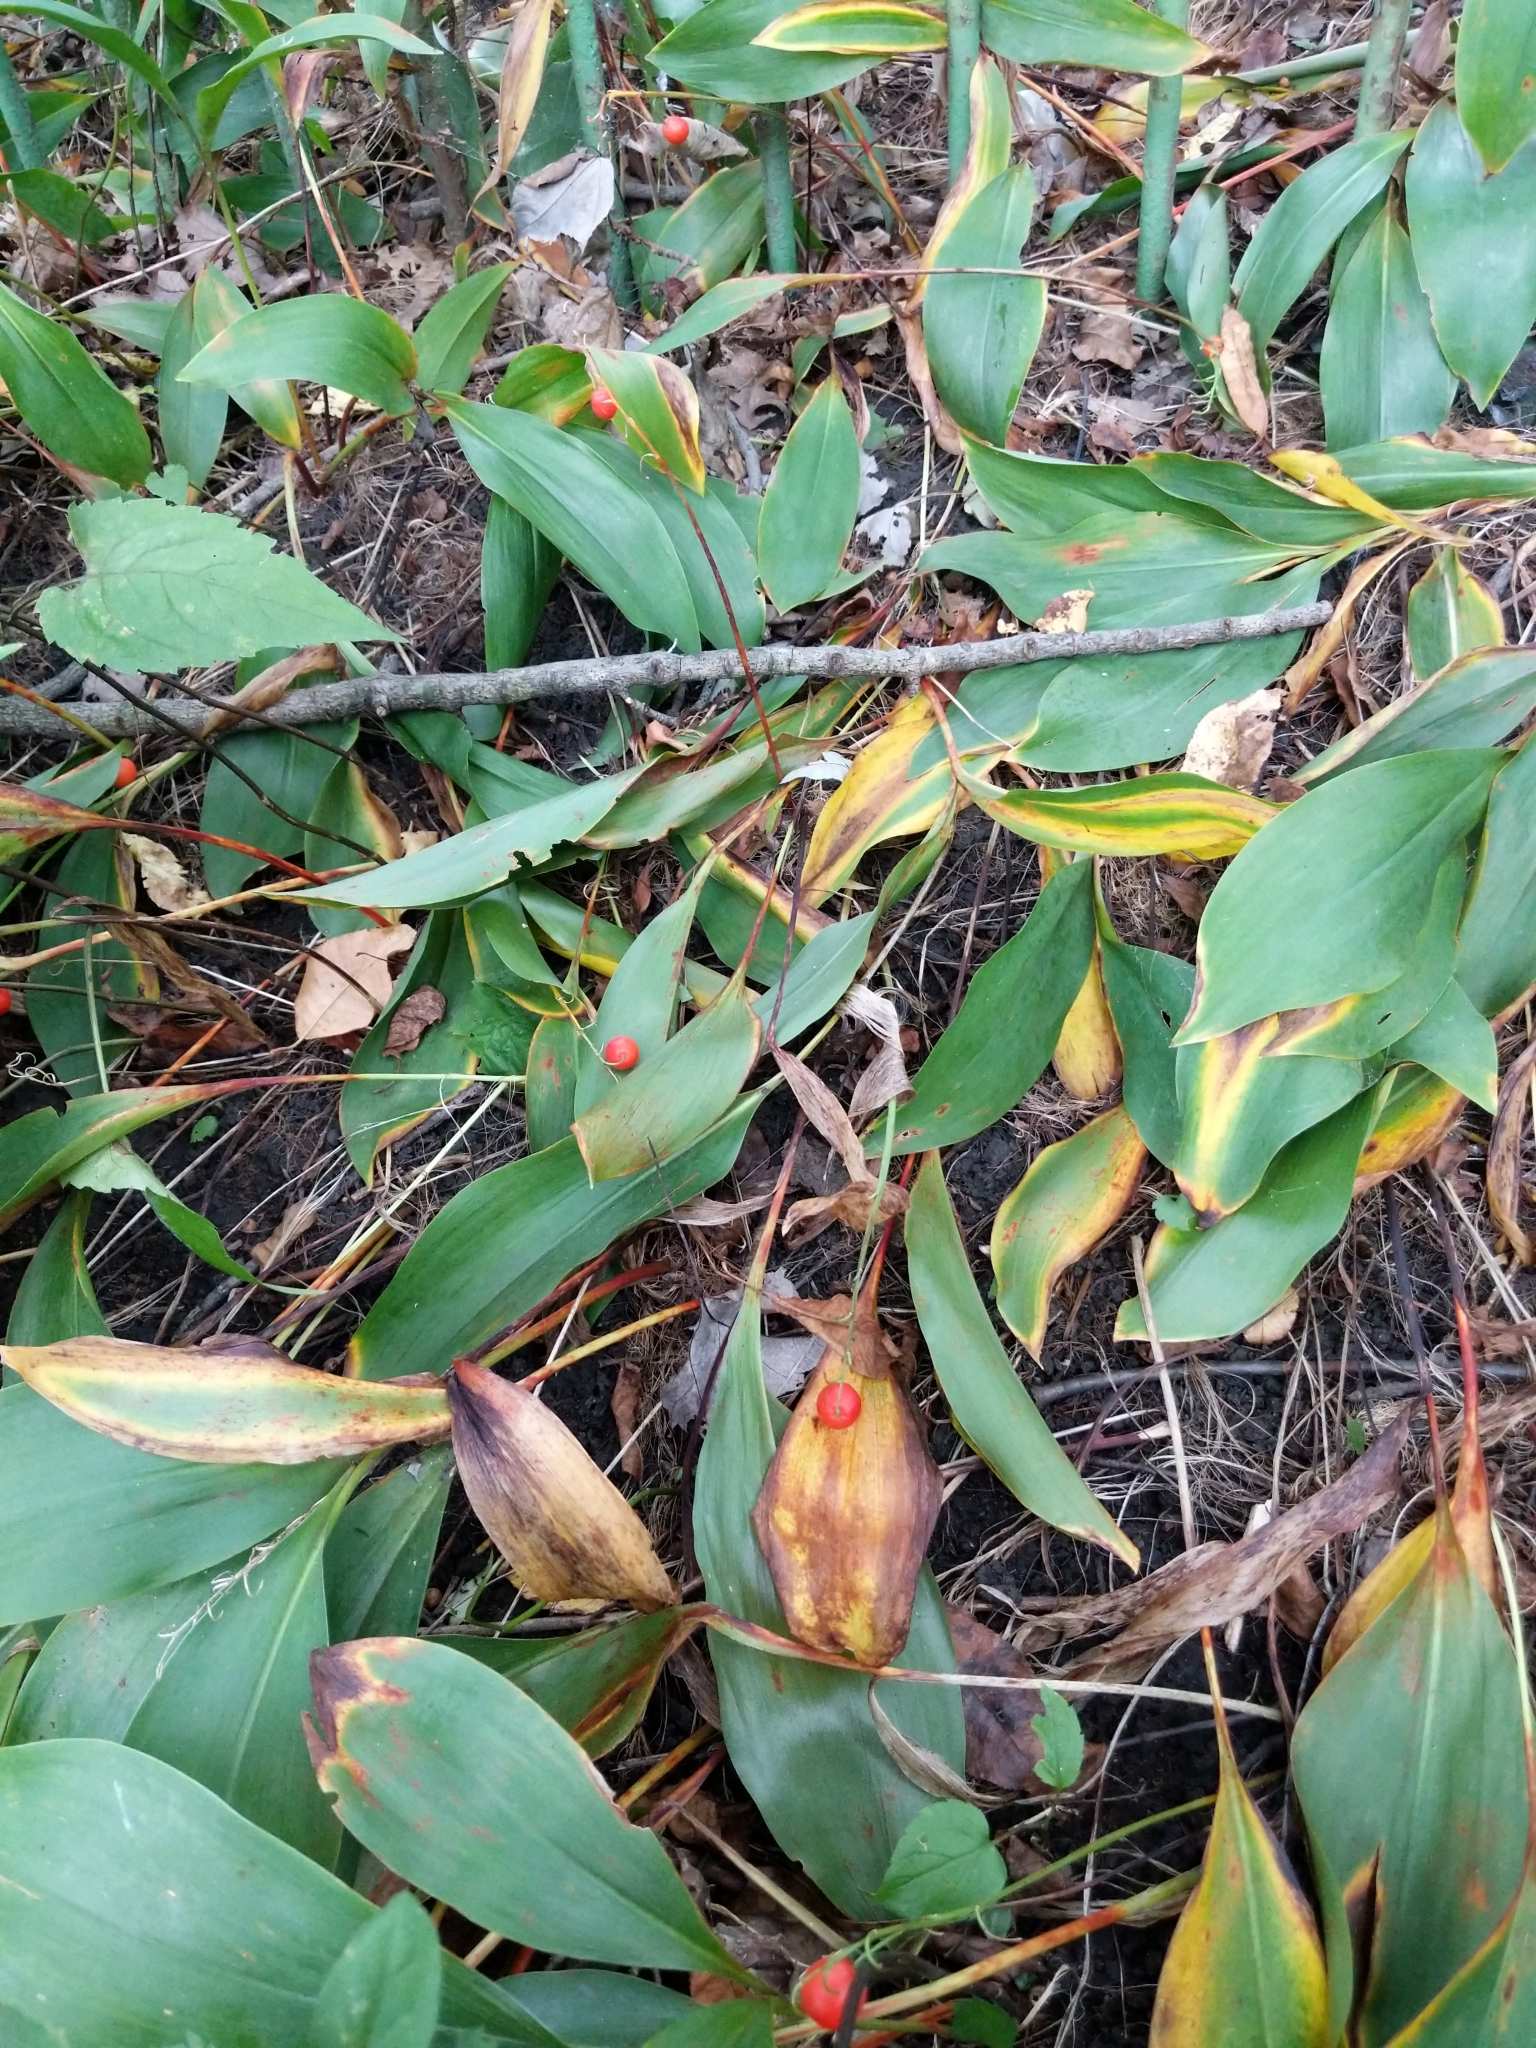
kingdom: Plantae
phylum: Tracheophyta
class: Liliopsida
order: Asparagales
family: Asparagaceae
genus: Convallaria
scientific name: Convallaria majalis
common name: Lily-of-the-valley
